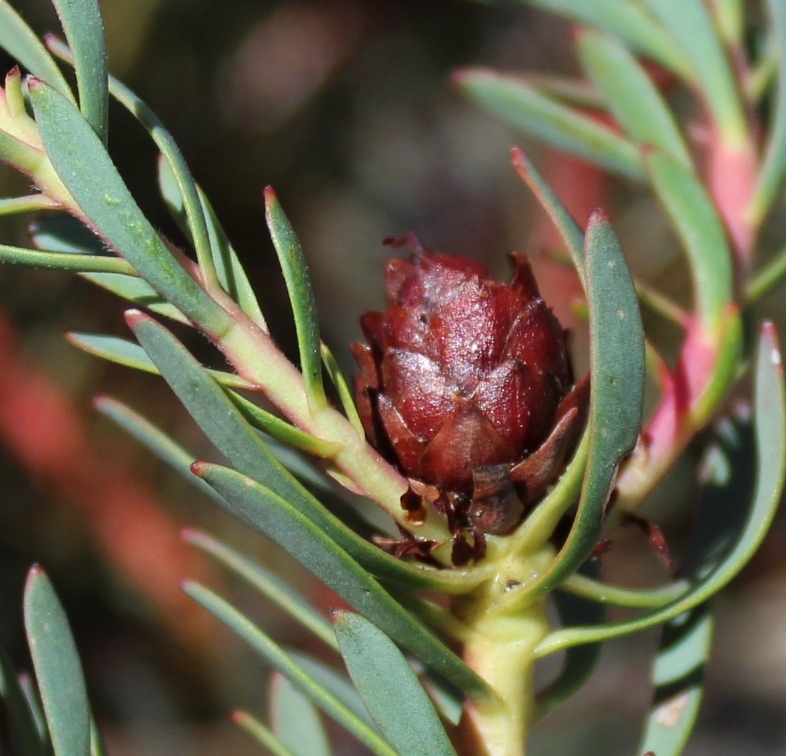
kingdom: Plantae
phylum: Tracheophyta
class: Magnoliopsida
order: Proteales
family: Proteaceae
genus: Leucadendron
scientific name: Leucadendron cadens
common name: Witteberg sunbush
